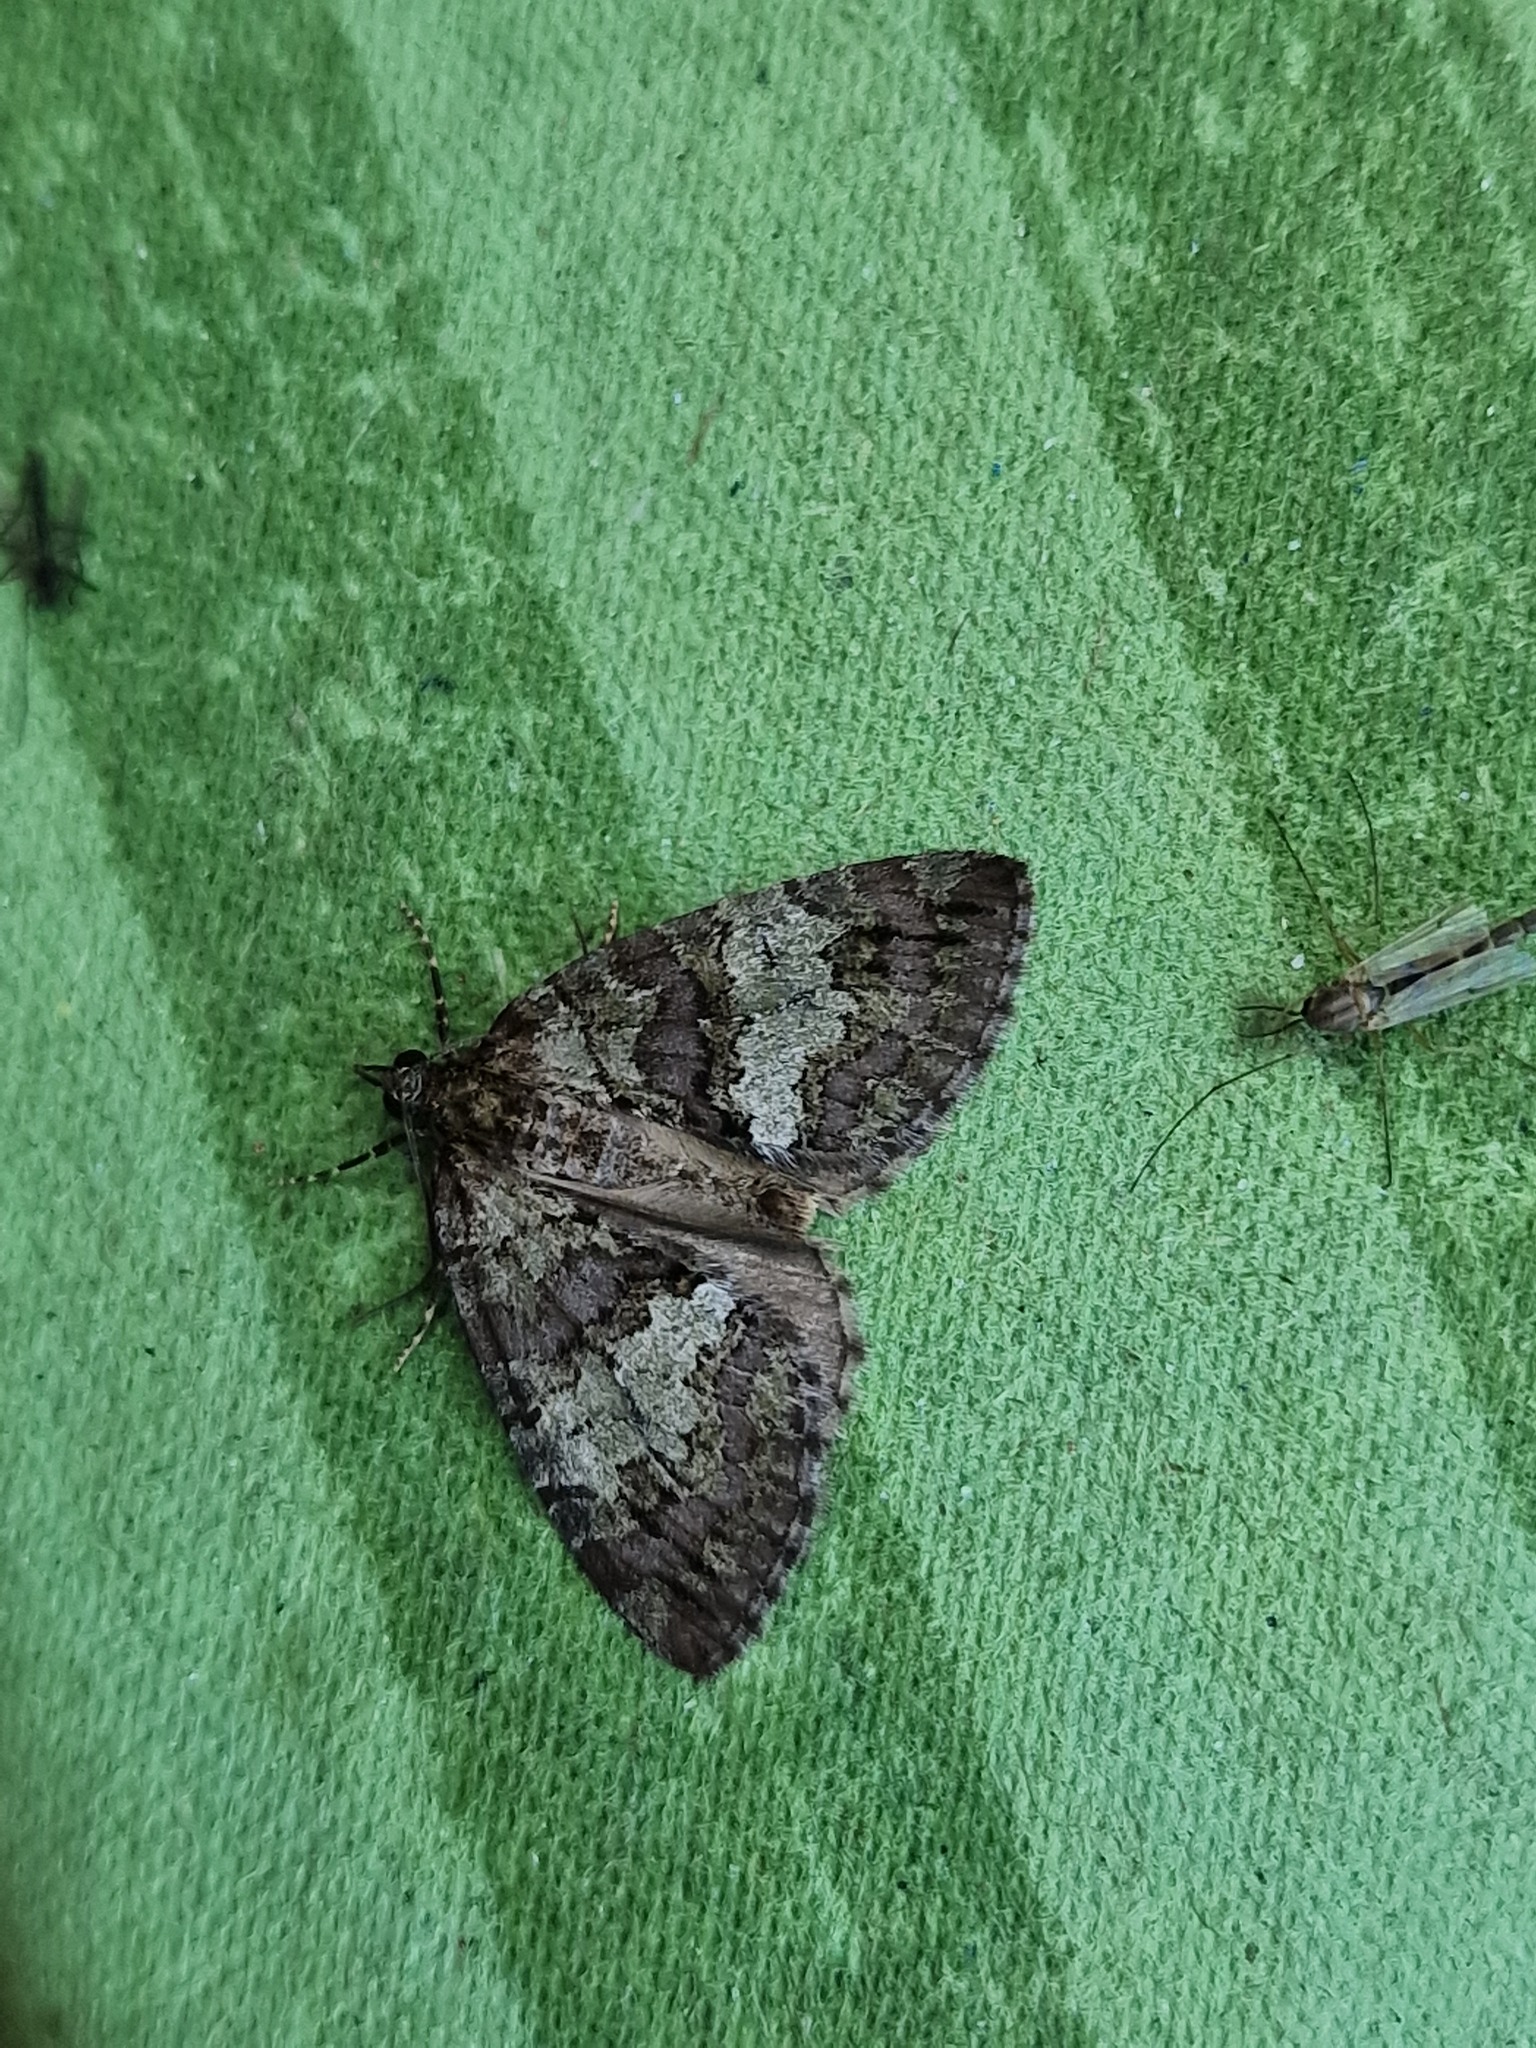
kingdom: Animalia
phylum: Arthropoda
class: Insecta
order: Lepidoptera
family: Geometridae
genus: Hydriomena
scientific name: Hydriomena impluviata
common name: May highflyer
